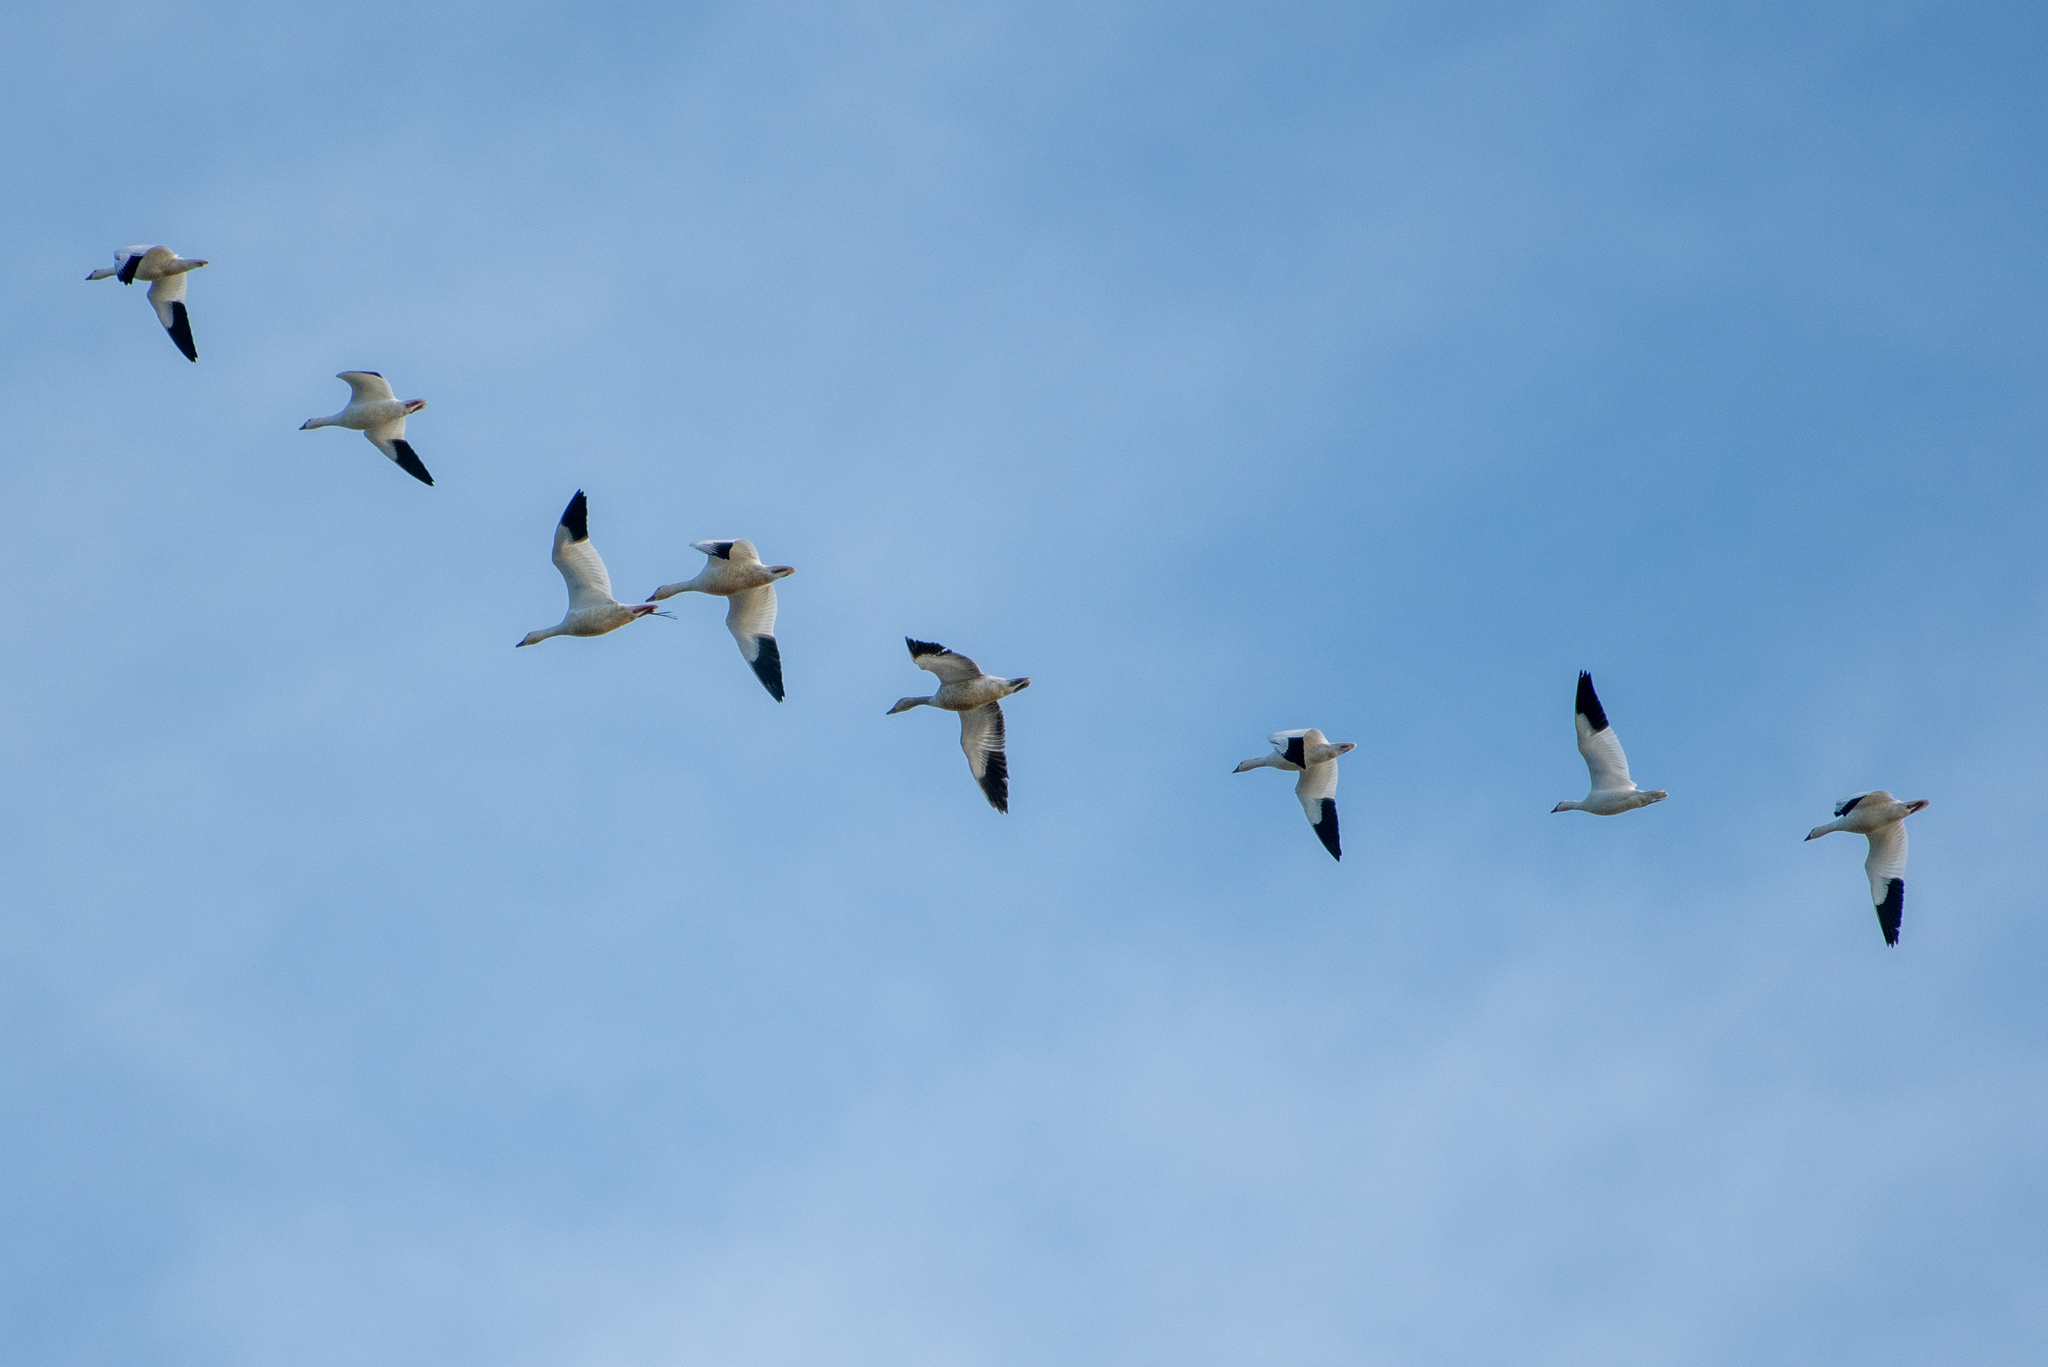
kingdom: Animalia
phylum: Chordata
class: Aves
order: Anseriformes
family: Anatidae
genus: Anser
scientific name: Anser caerulescens
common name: Snow goose
